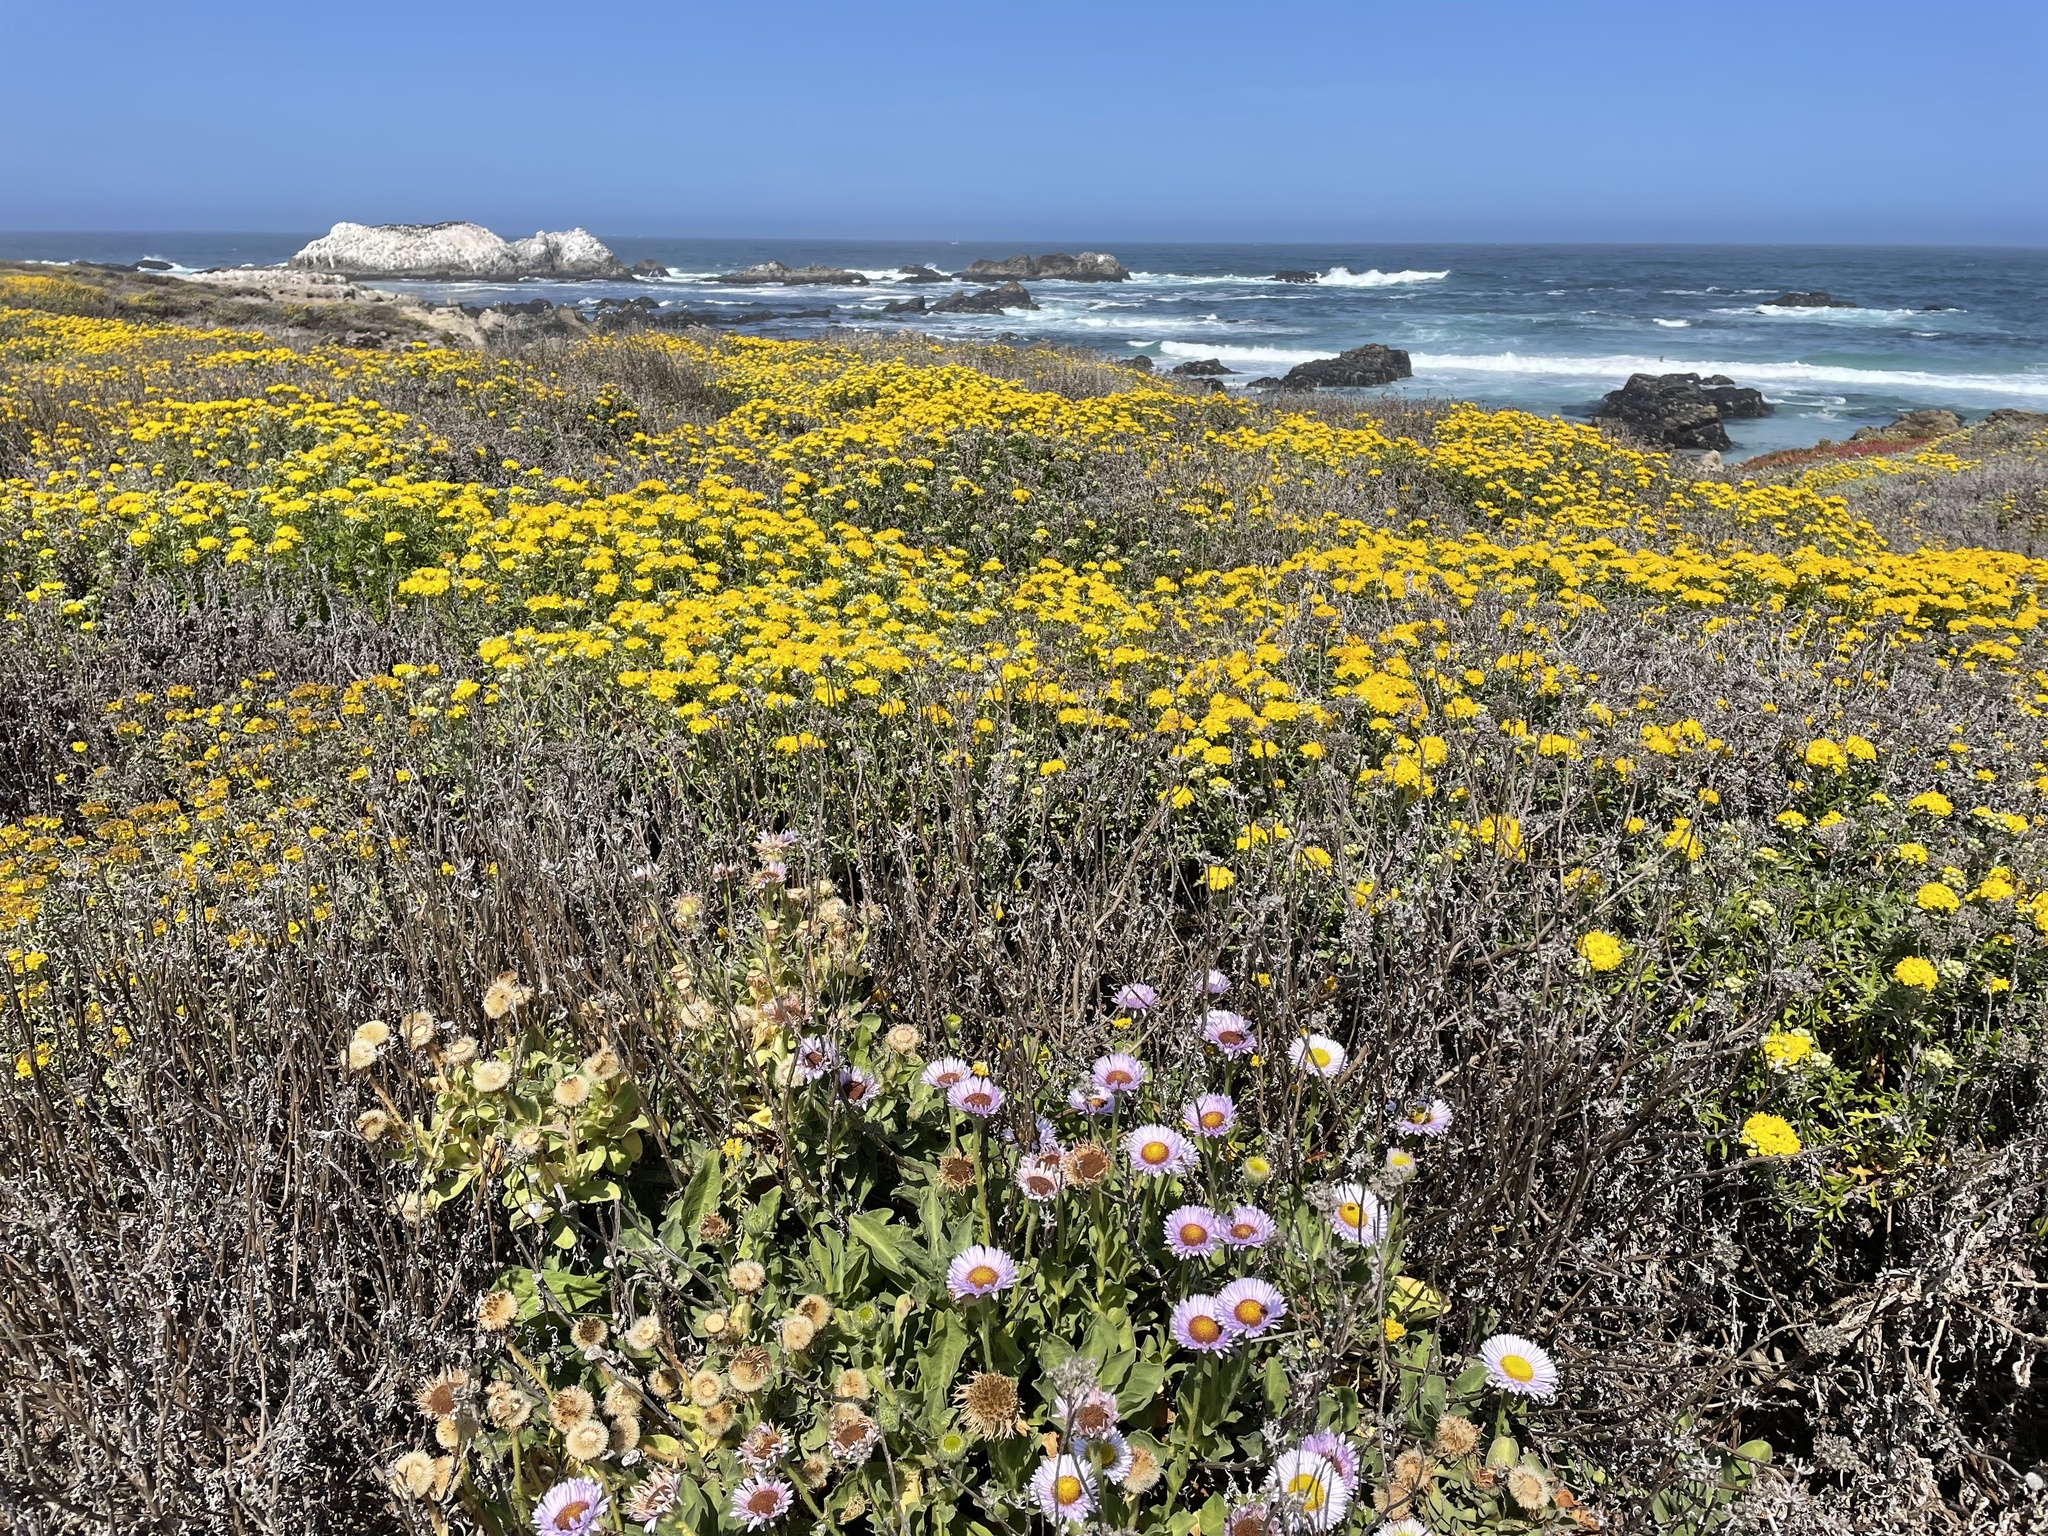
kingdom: Plantae
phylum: Tracheophyta
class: Magnoliopsida
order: Asterales
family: Asteraceae
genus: Erigeron
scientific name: Erigeron glaucus
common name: Seaside daisy
